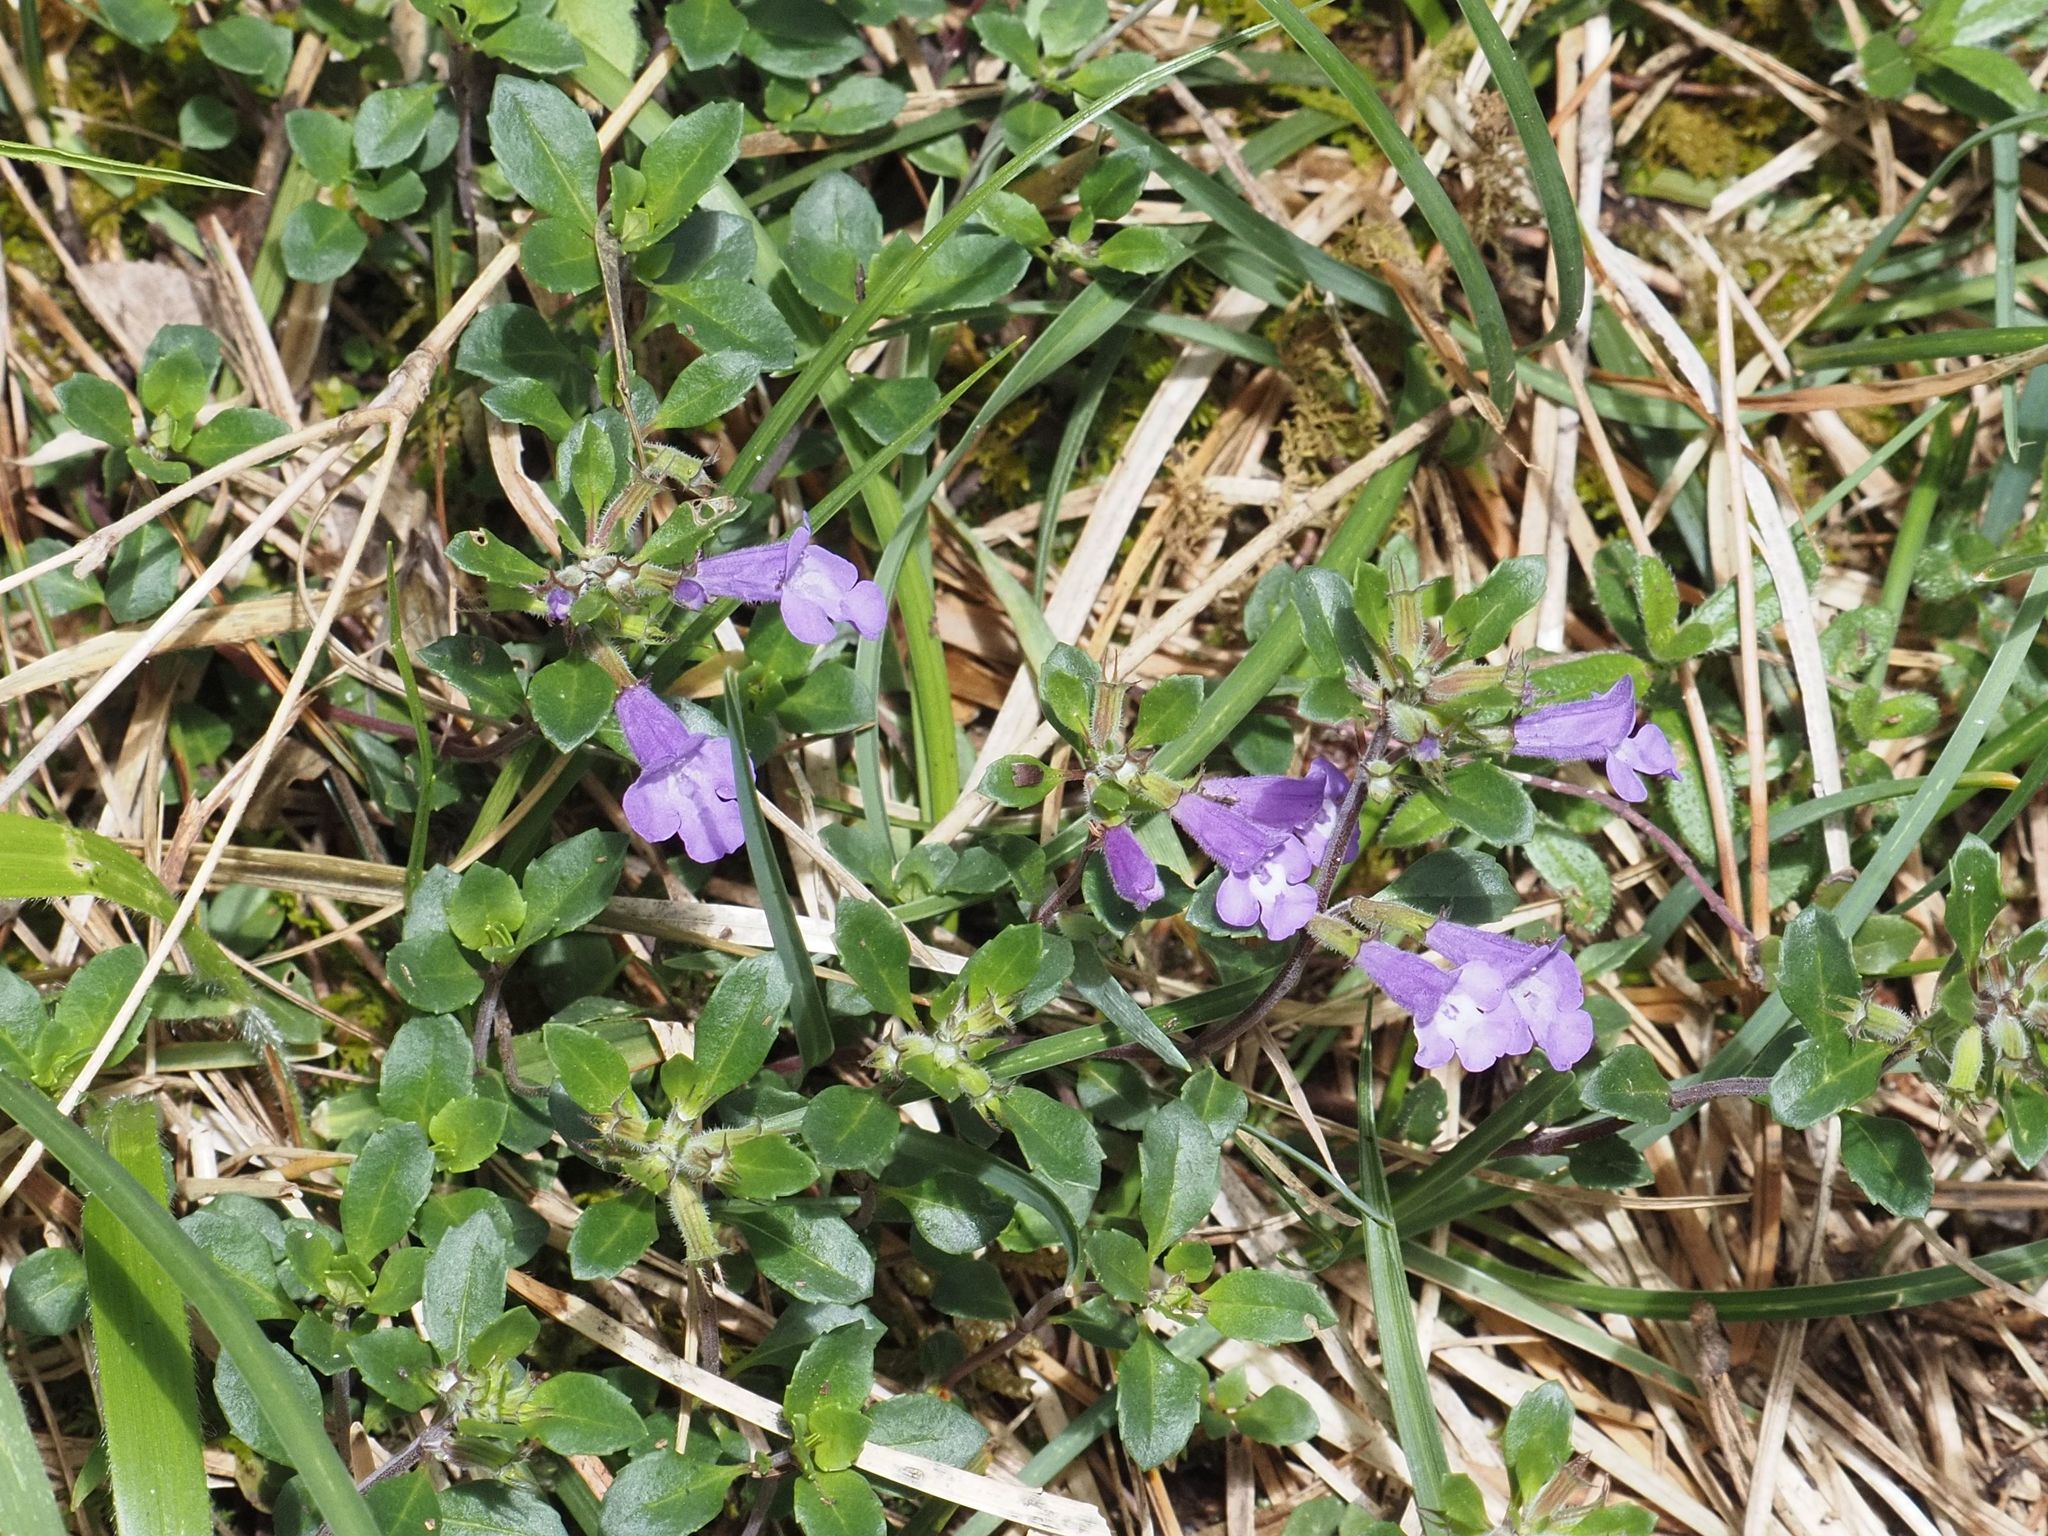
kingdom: Plantae
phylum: Tracheophyta
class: Magnoliopsida
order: Lamiales
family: Lamiaceae
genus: Clinopodium
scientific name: Clinopodium alpinum
